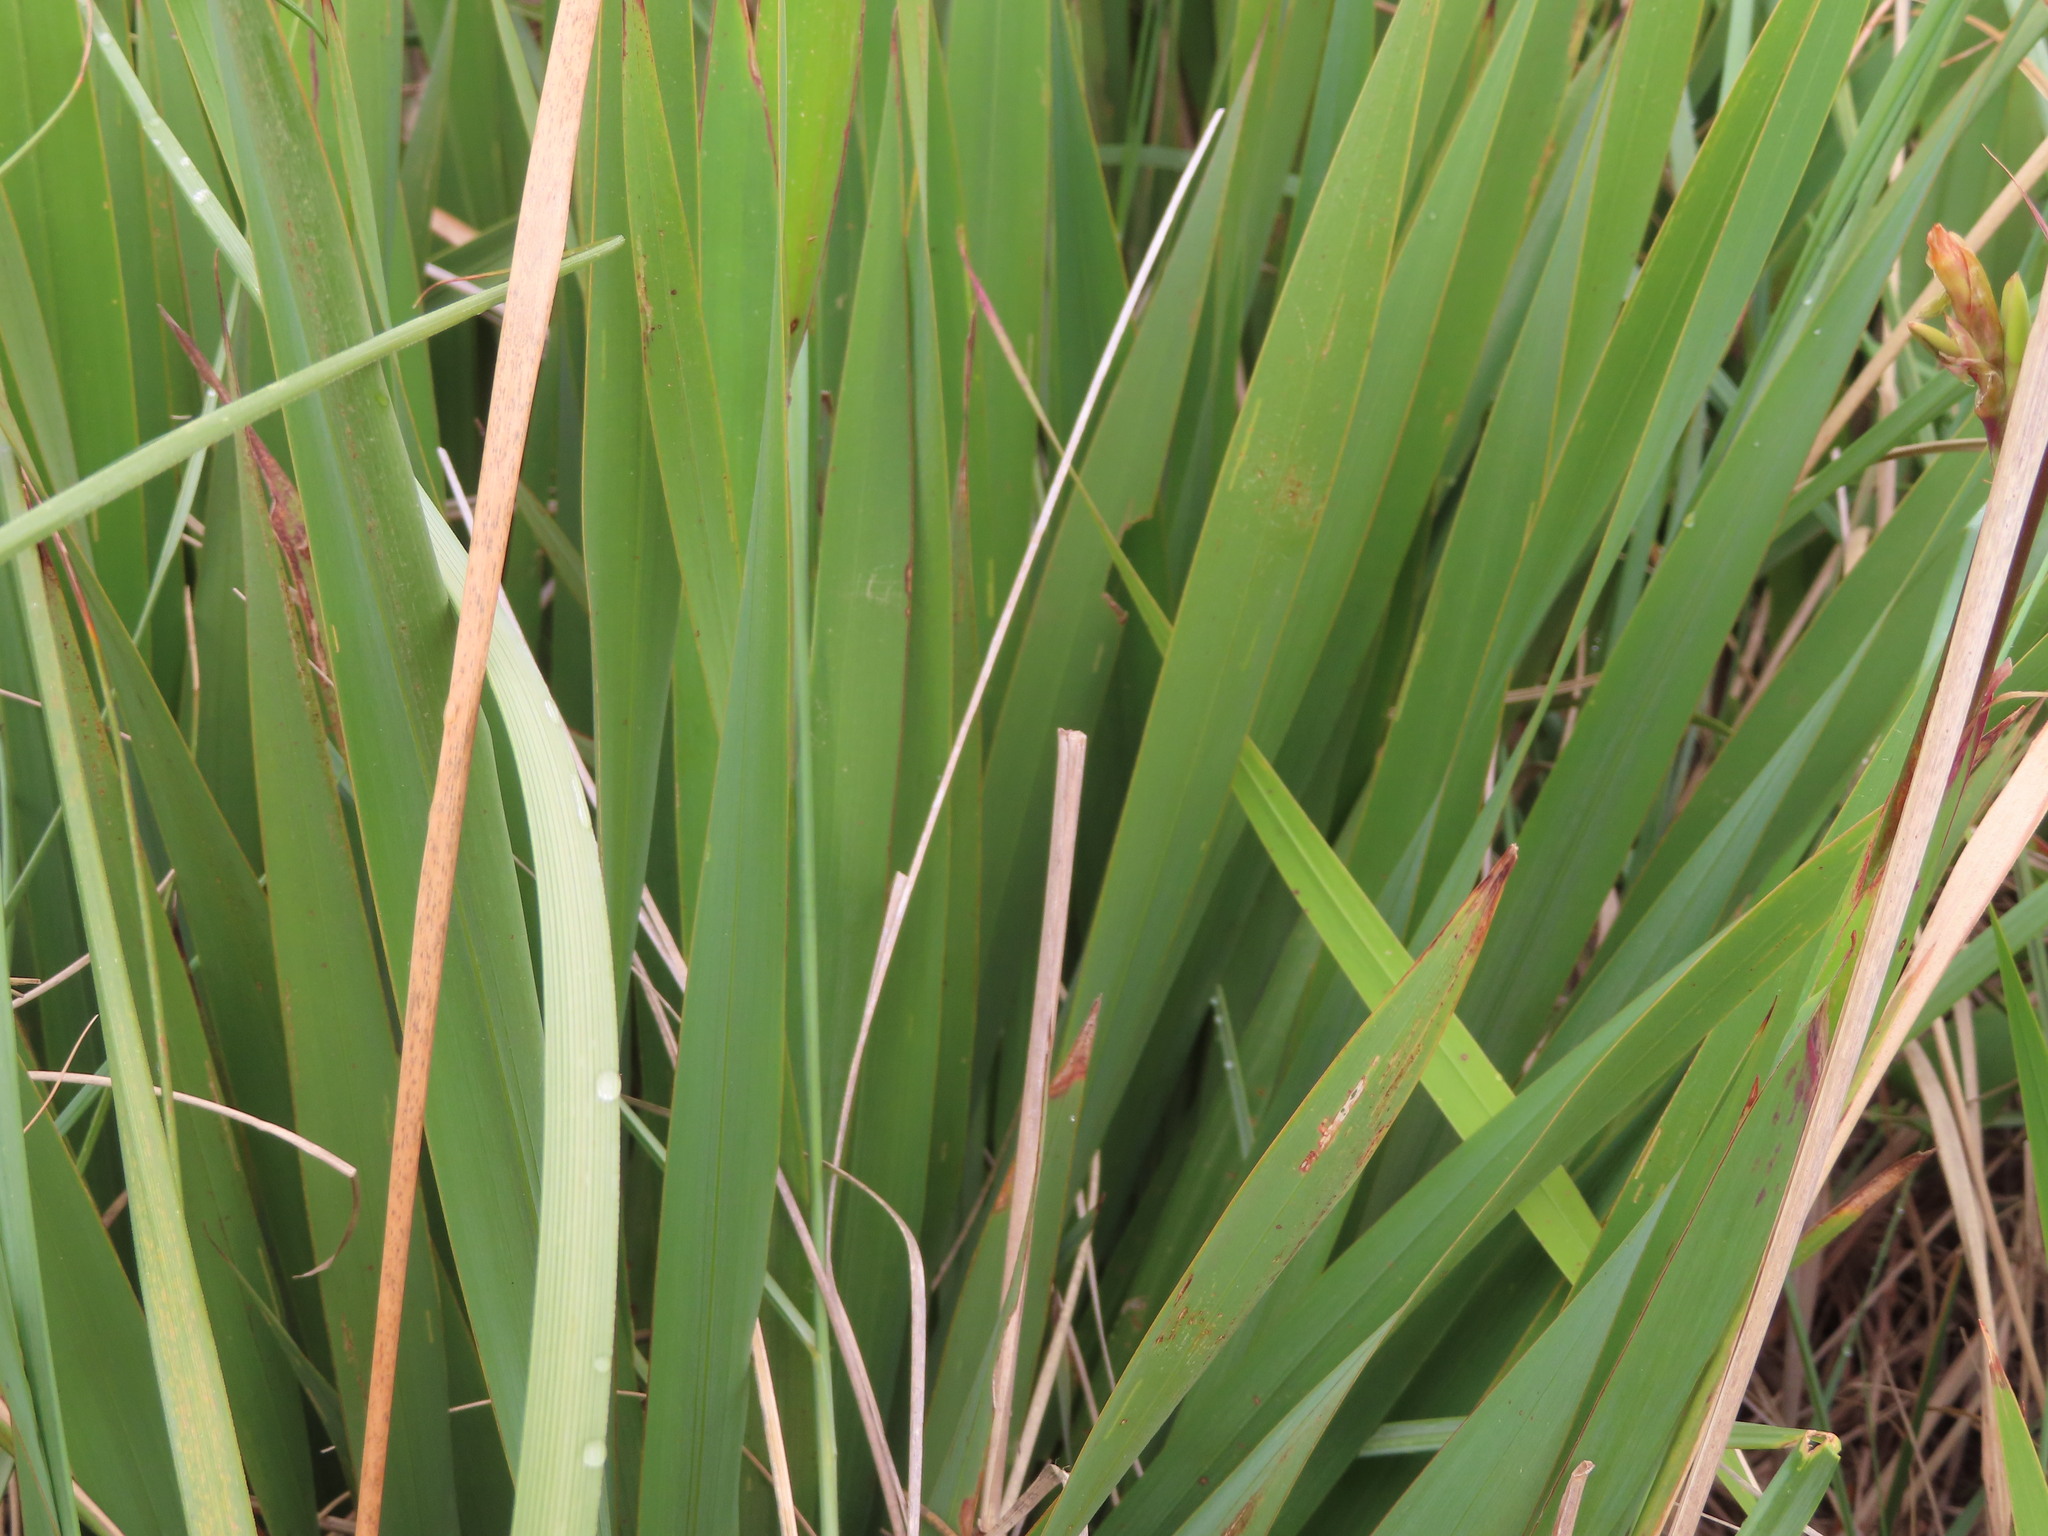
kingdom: Plantae
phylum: Tracheophyta
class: Liliopsida
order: Asparagales
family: Iridaceae
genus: Watsonia
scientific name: Watsonia meriana
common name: Bulbil bugle-lily
